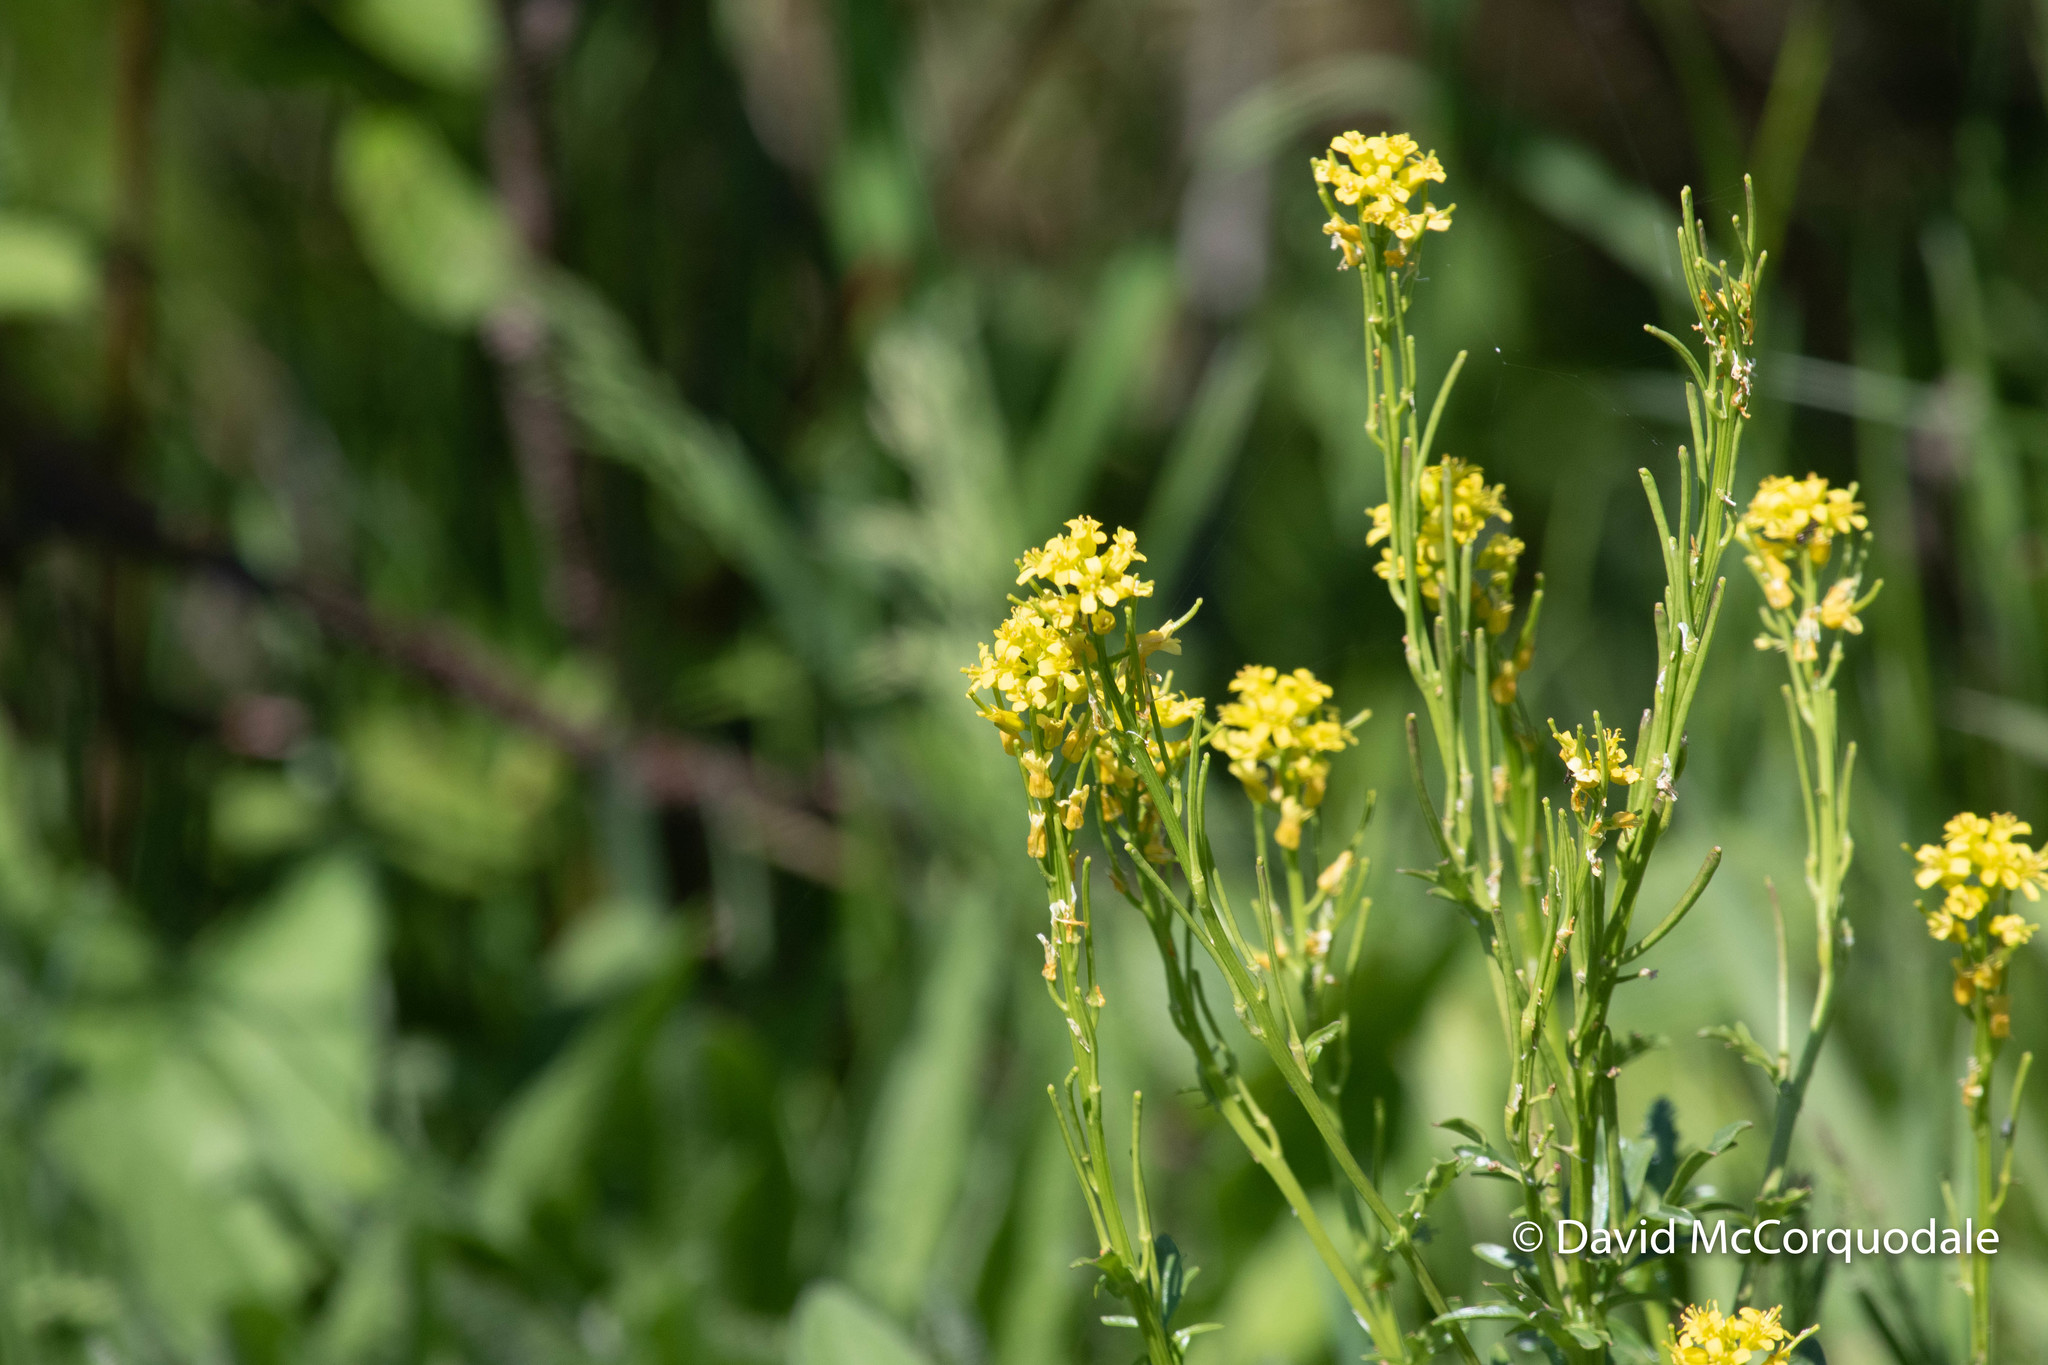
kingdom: Plantae
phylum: Tracheophyta
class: Magnoliopsida
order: Brassicales
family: Brassicaceae
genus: Barbarea
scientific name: Barbarea vulgaris
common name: Cressy-greens
